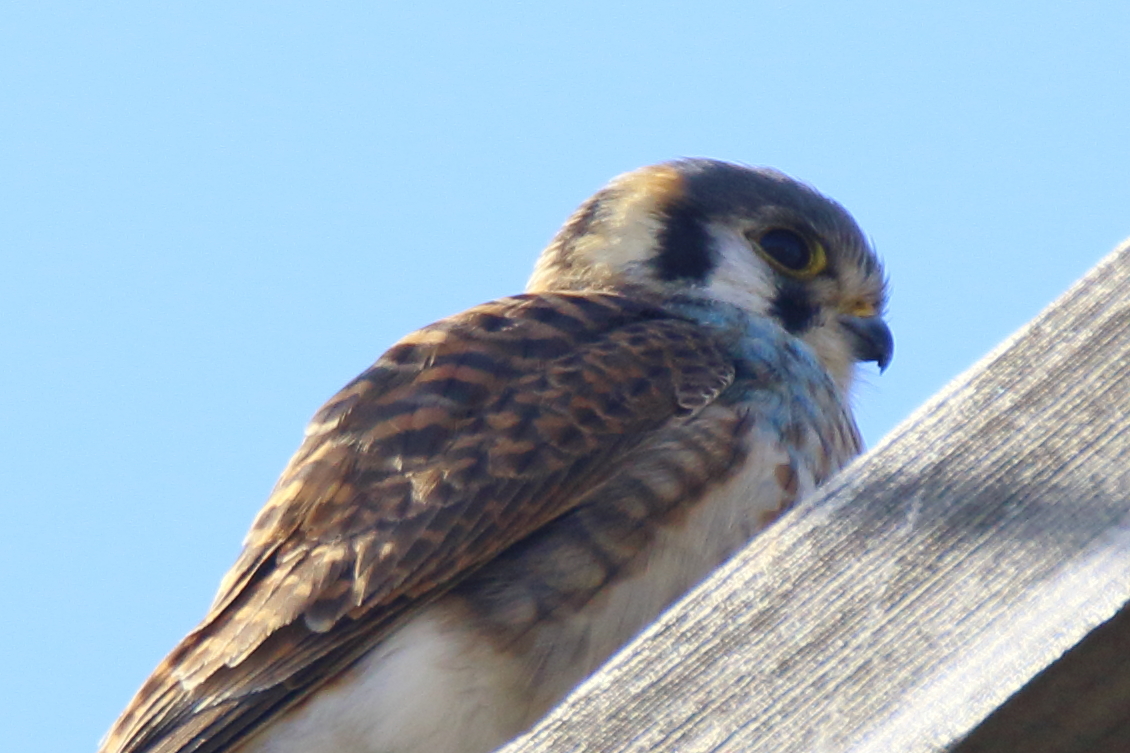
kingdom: Animalia
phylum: Chordata
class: Aves
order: Falconiformes
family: Falconidae
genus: Falco
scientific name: Falco sparverius
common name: American kestrel
